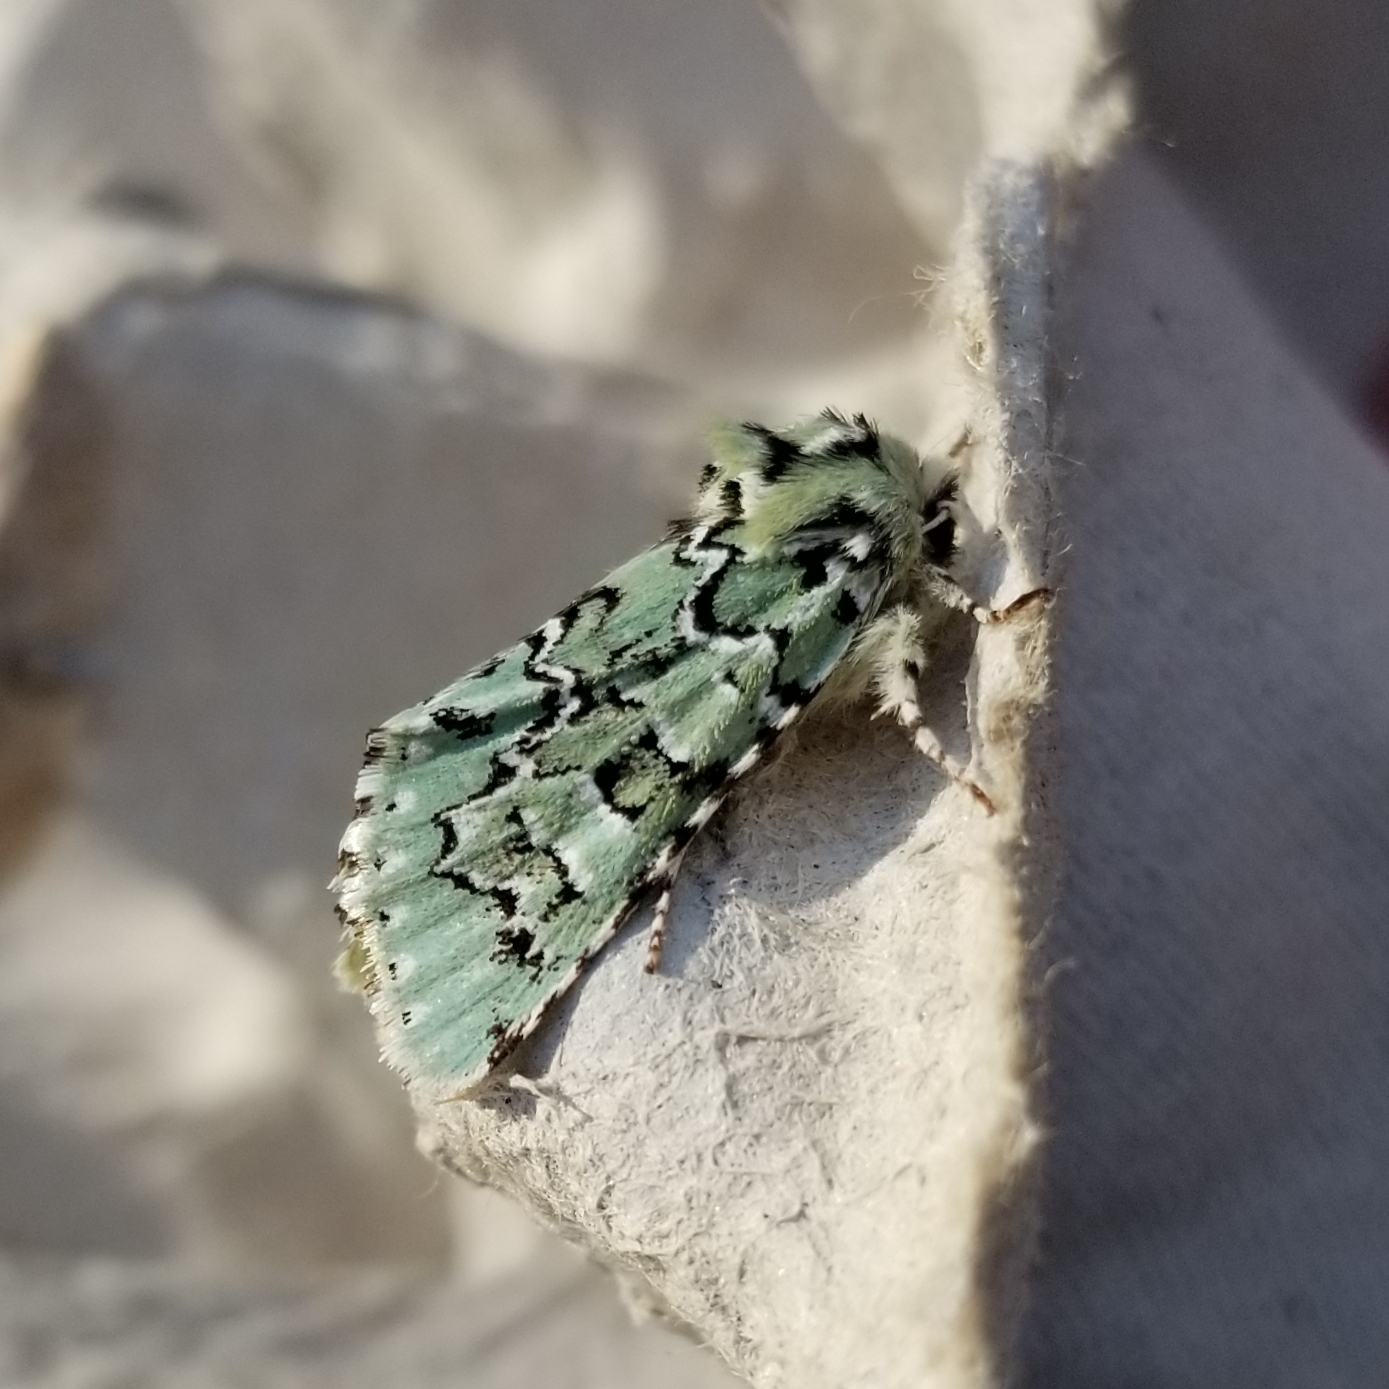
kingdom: Animalia
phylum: Arthropoda
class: Insecta
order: Lepidoptera
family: Noctuidae
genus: Feralia
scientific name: Feralia major
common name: Major sallow
